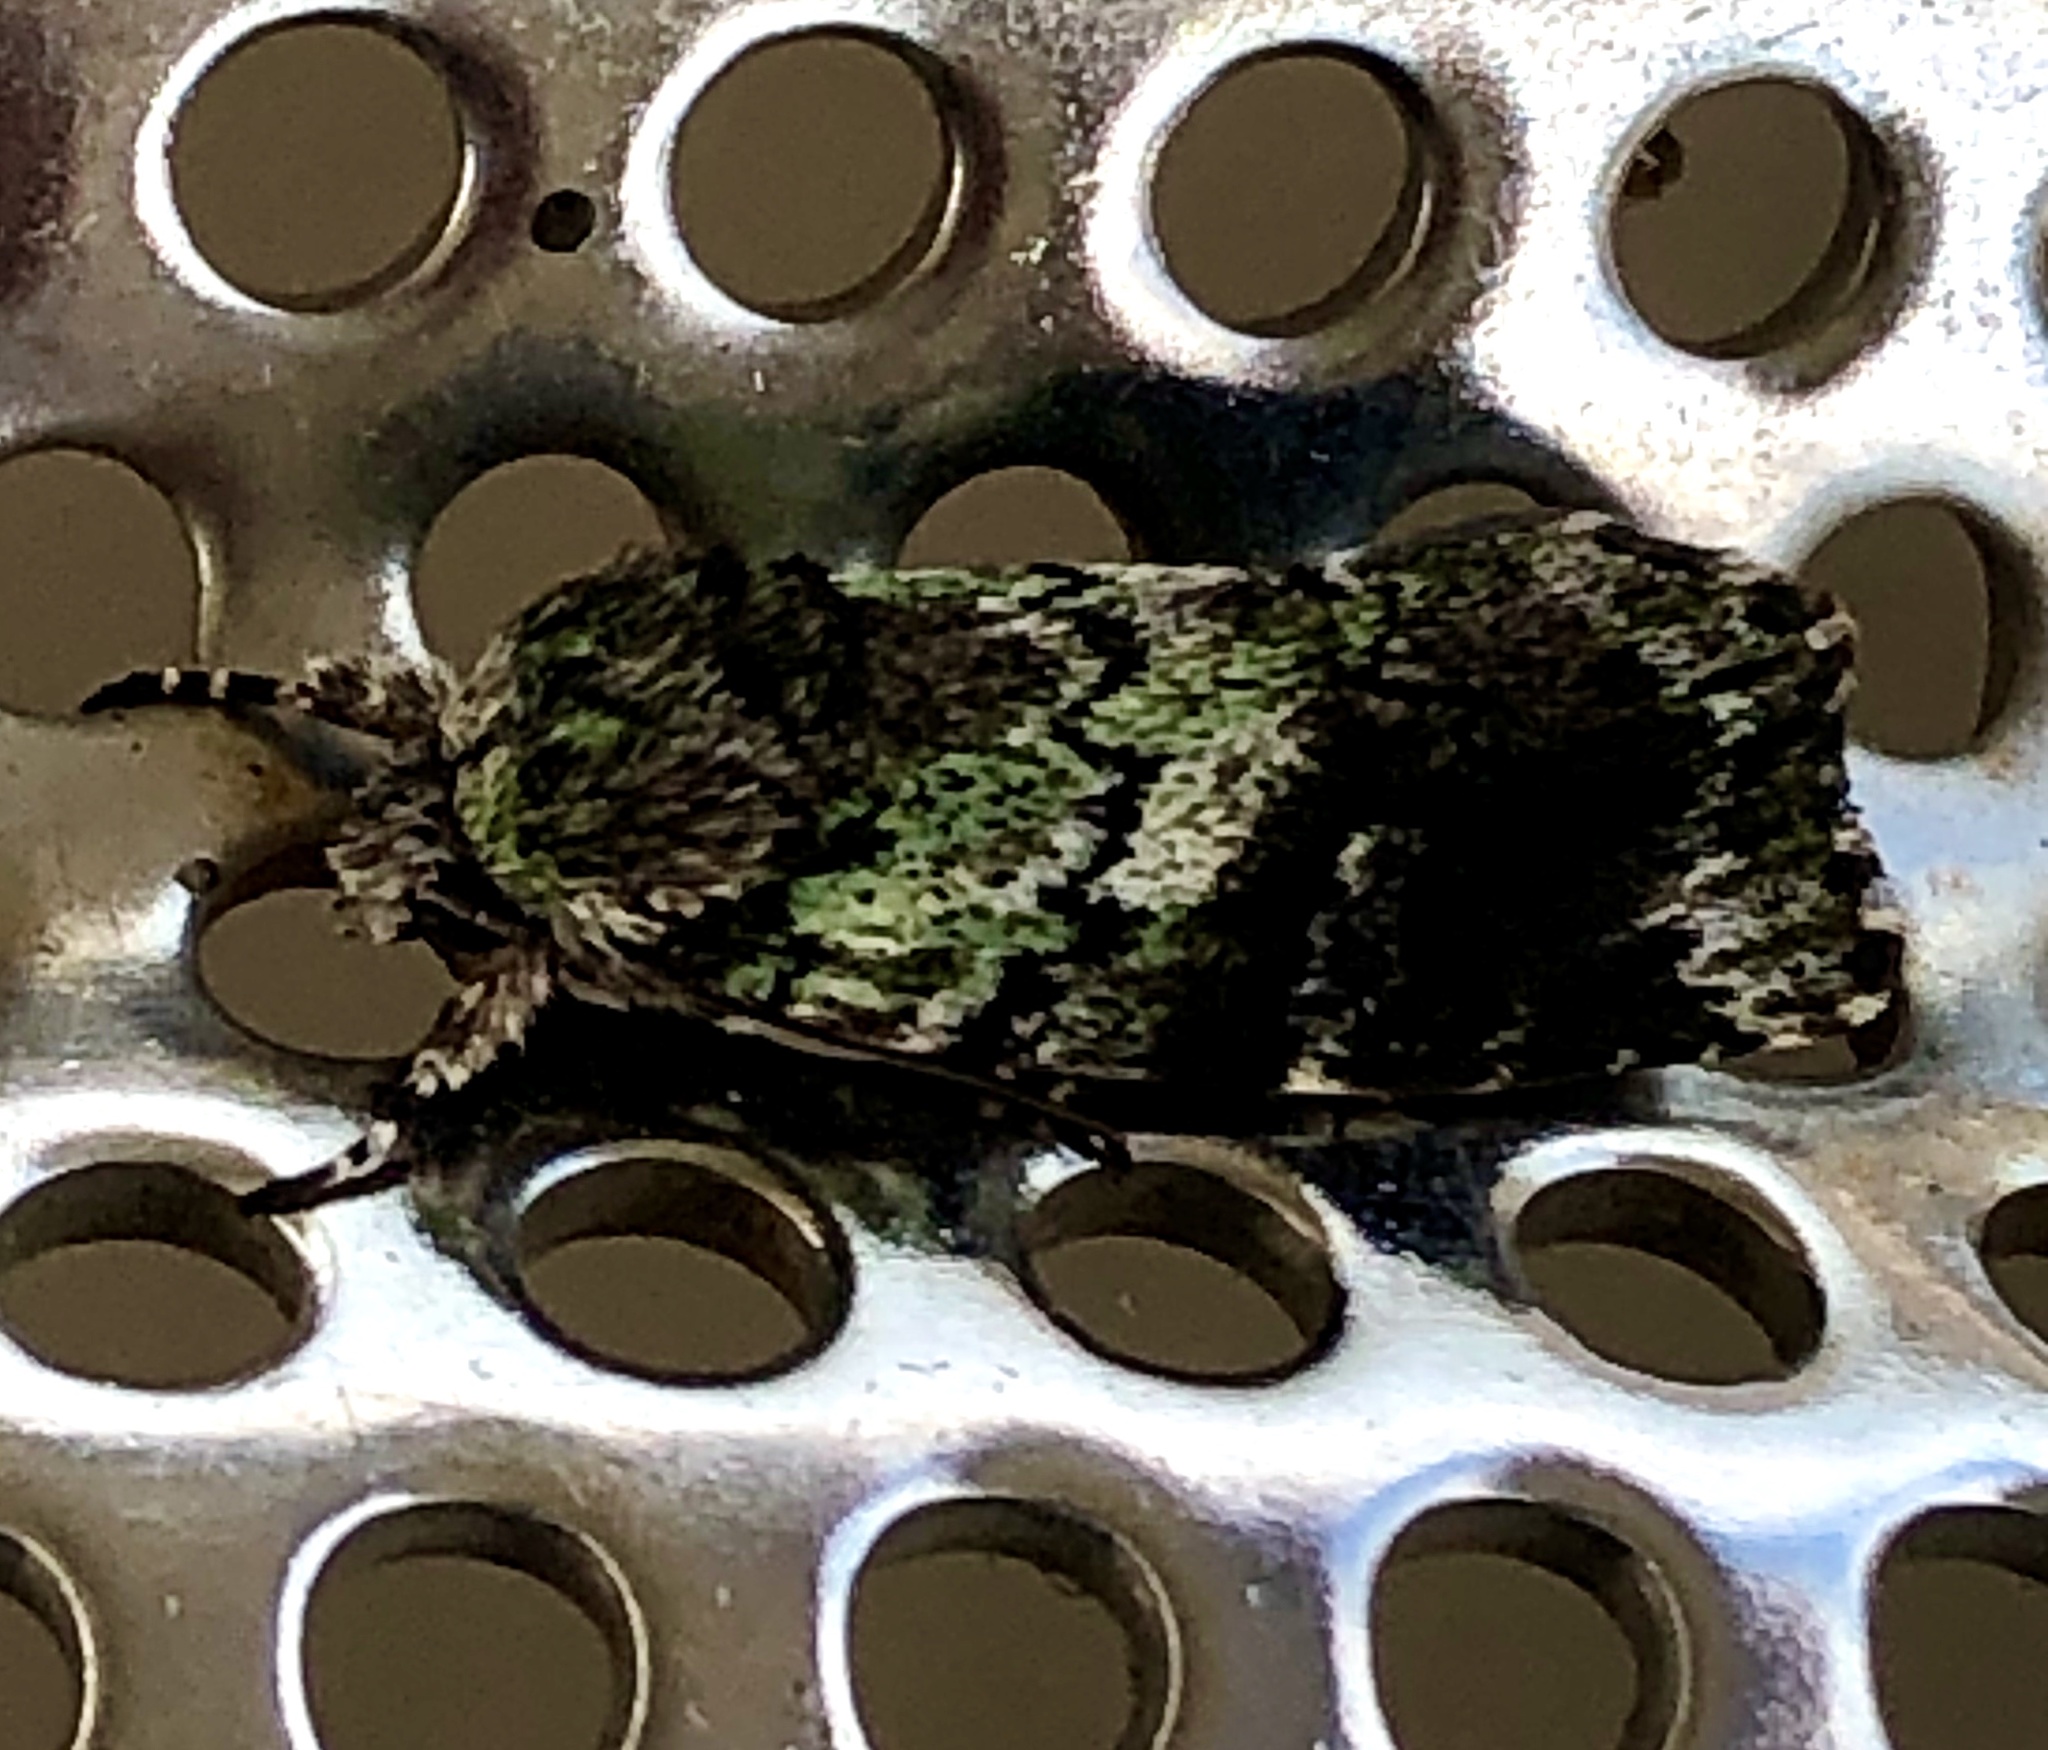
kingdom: Animalia
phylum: Arthropoda
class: Insecta
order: Lepidoptera
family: Noctuidae
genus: Prometopus
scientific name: Prometopus inassueta
